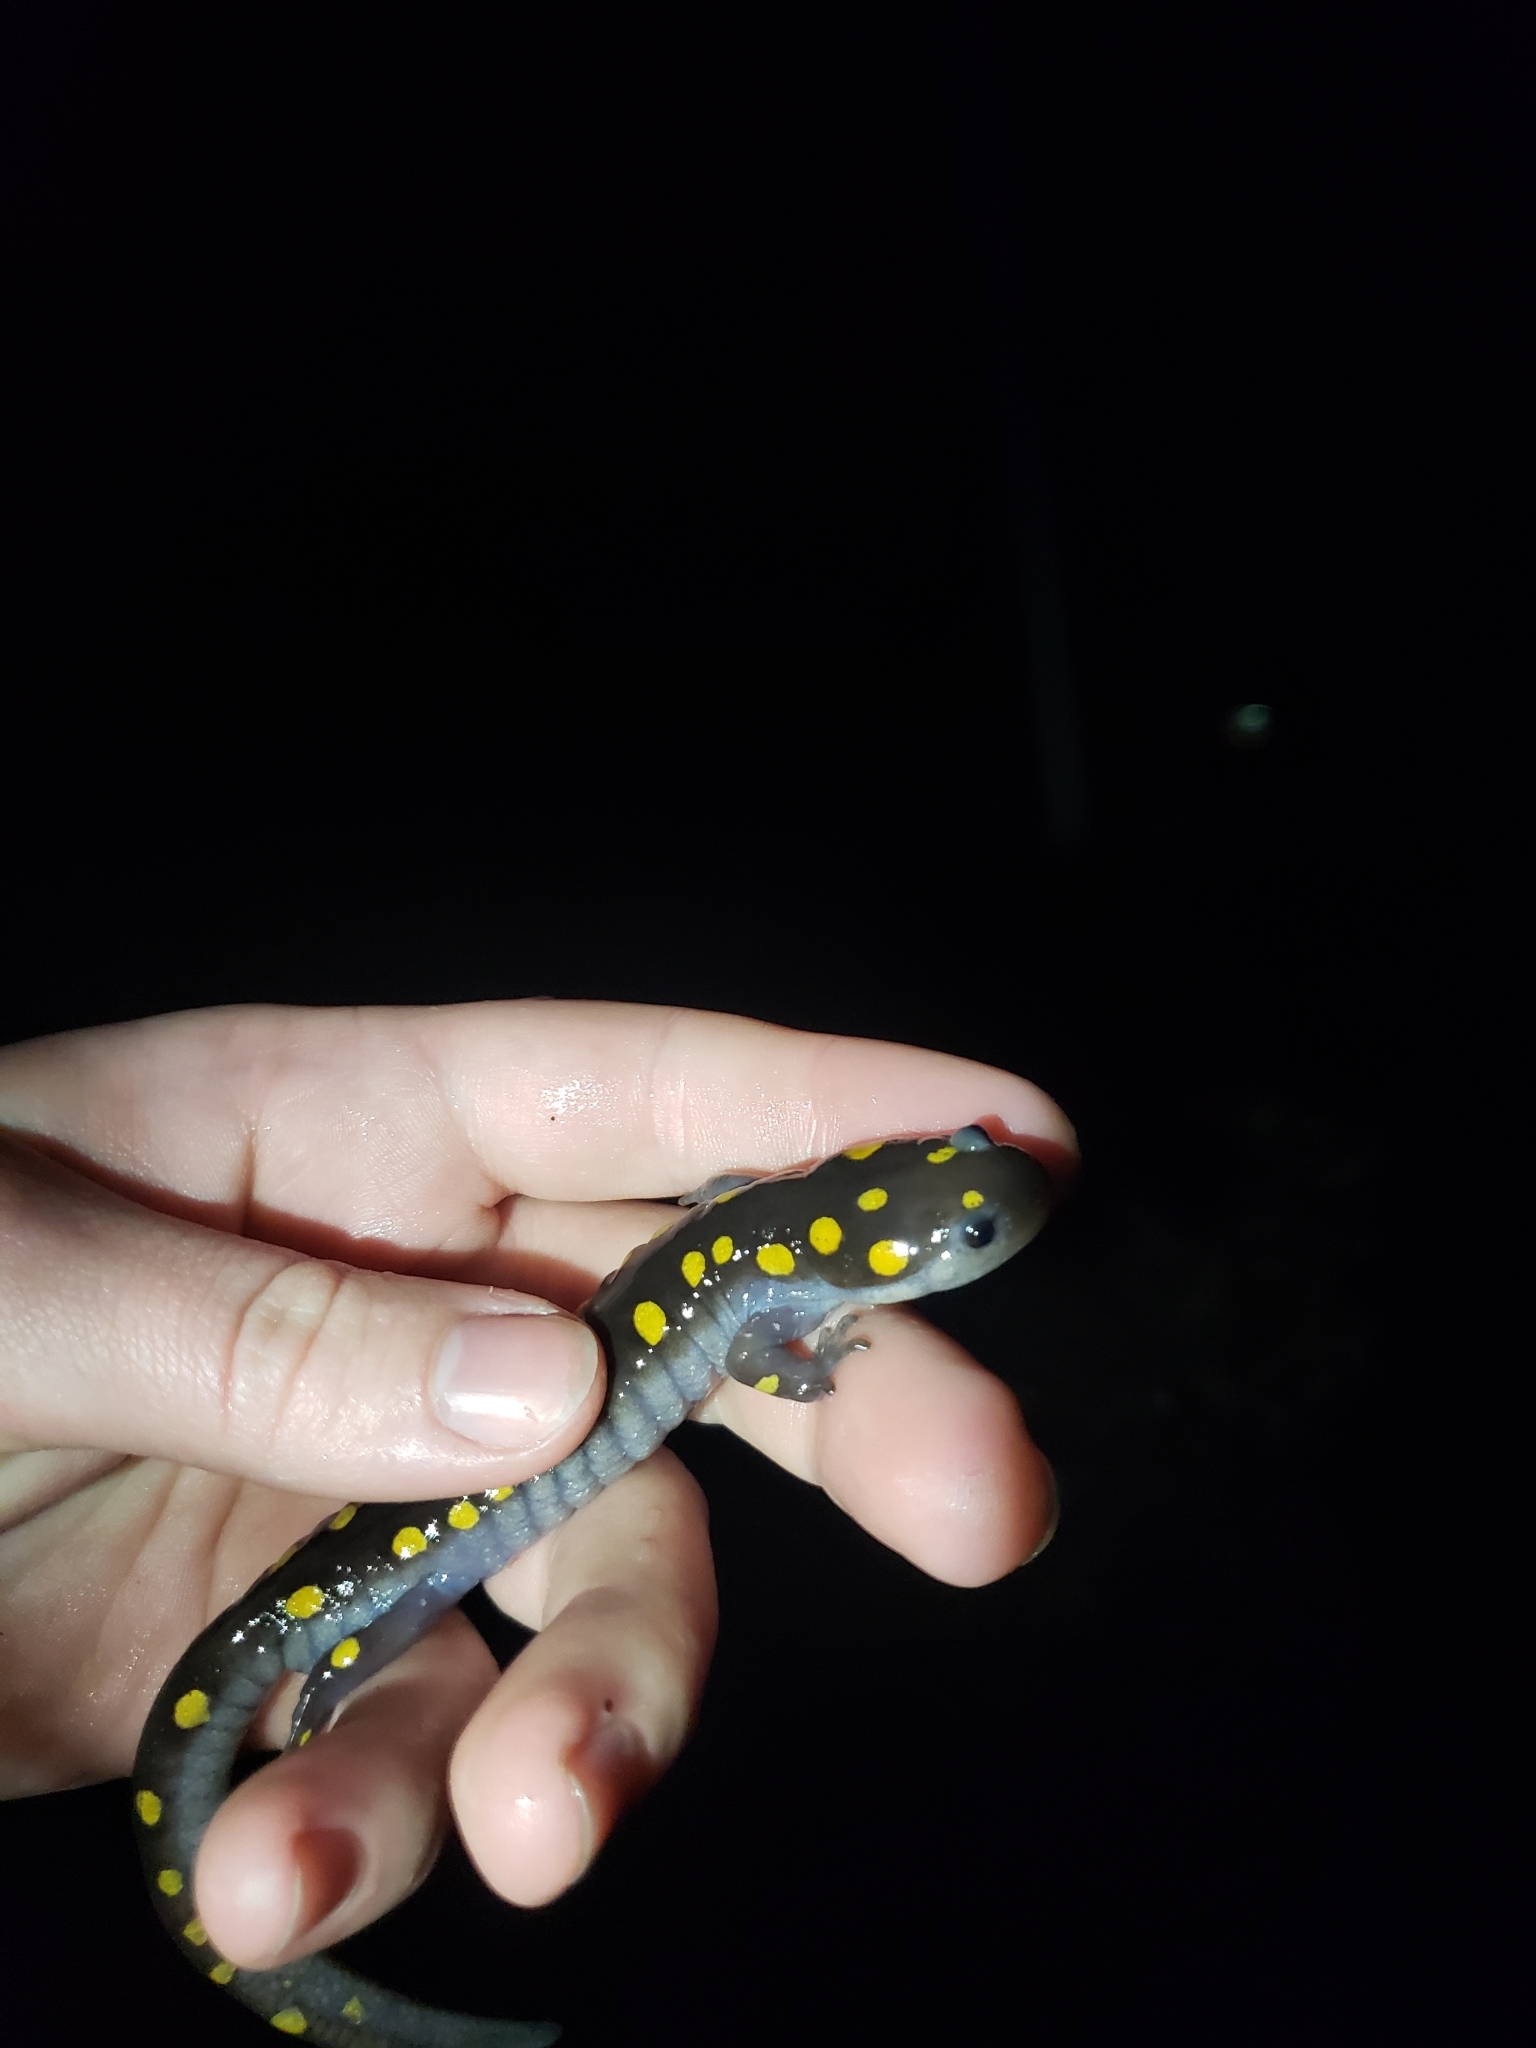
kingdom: Animalia
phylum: Chordata
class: Amphibia
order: Caudata
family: Ambystomatidae
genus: Ambystoma
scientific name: Ambystoma maculatum
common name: Spotted salamander
